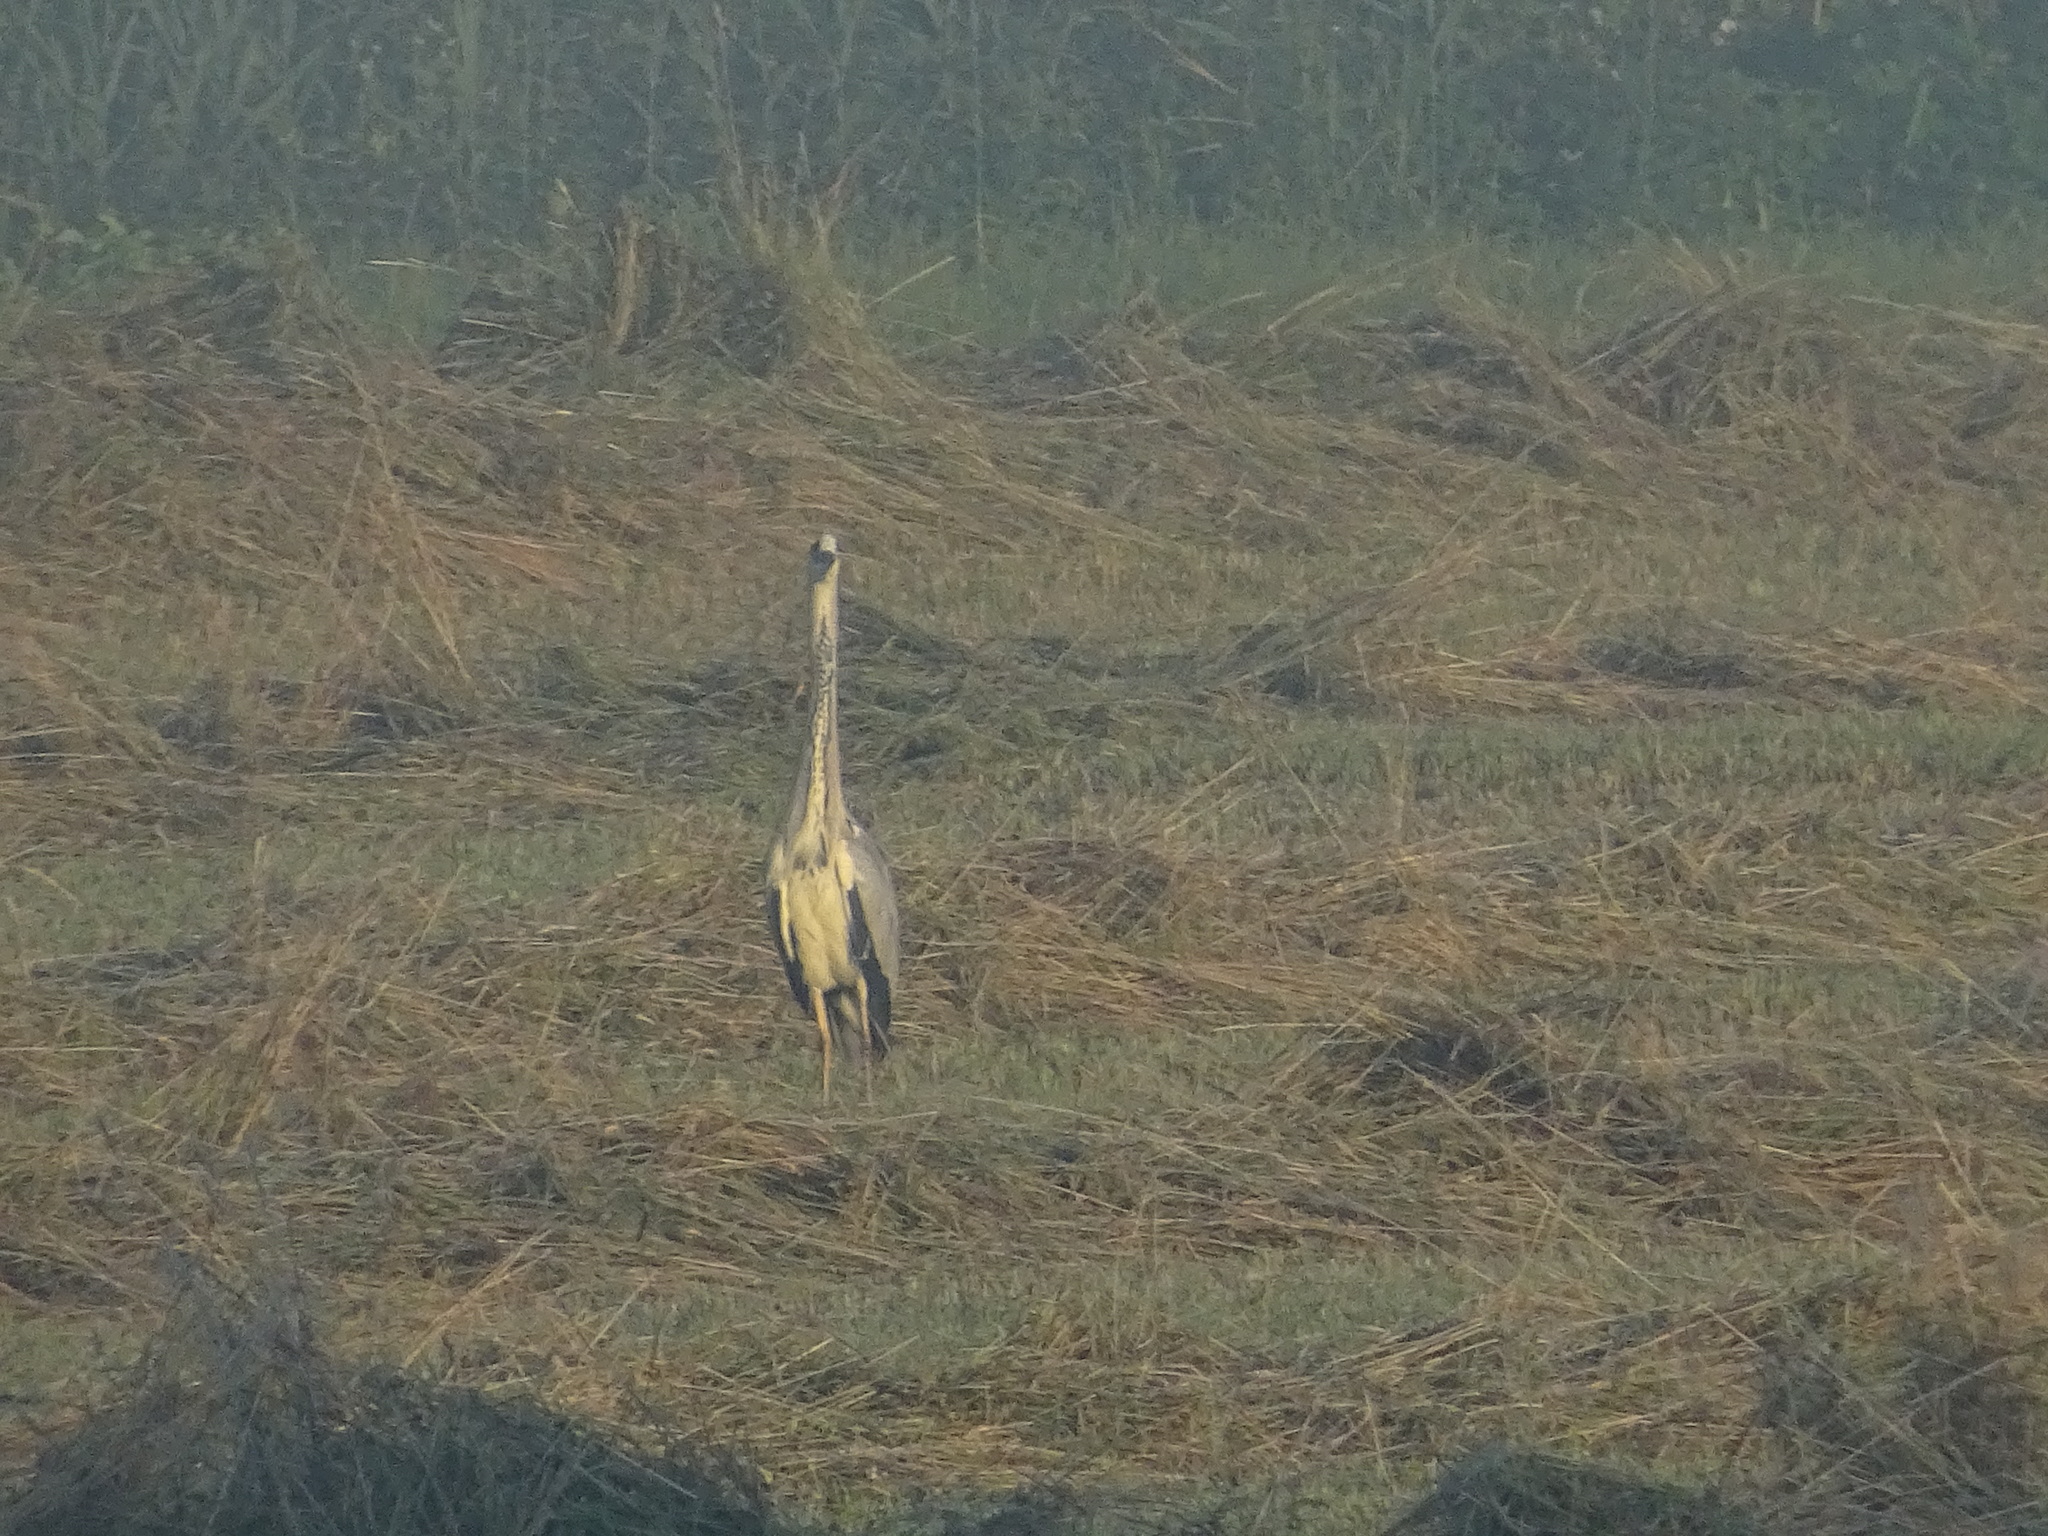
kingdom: Animalia
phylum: Chordata
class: Aves
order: Pelecaniformes
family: Ardeidae
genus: Ardea
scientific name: Ardea cinerea
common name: Grey heron
